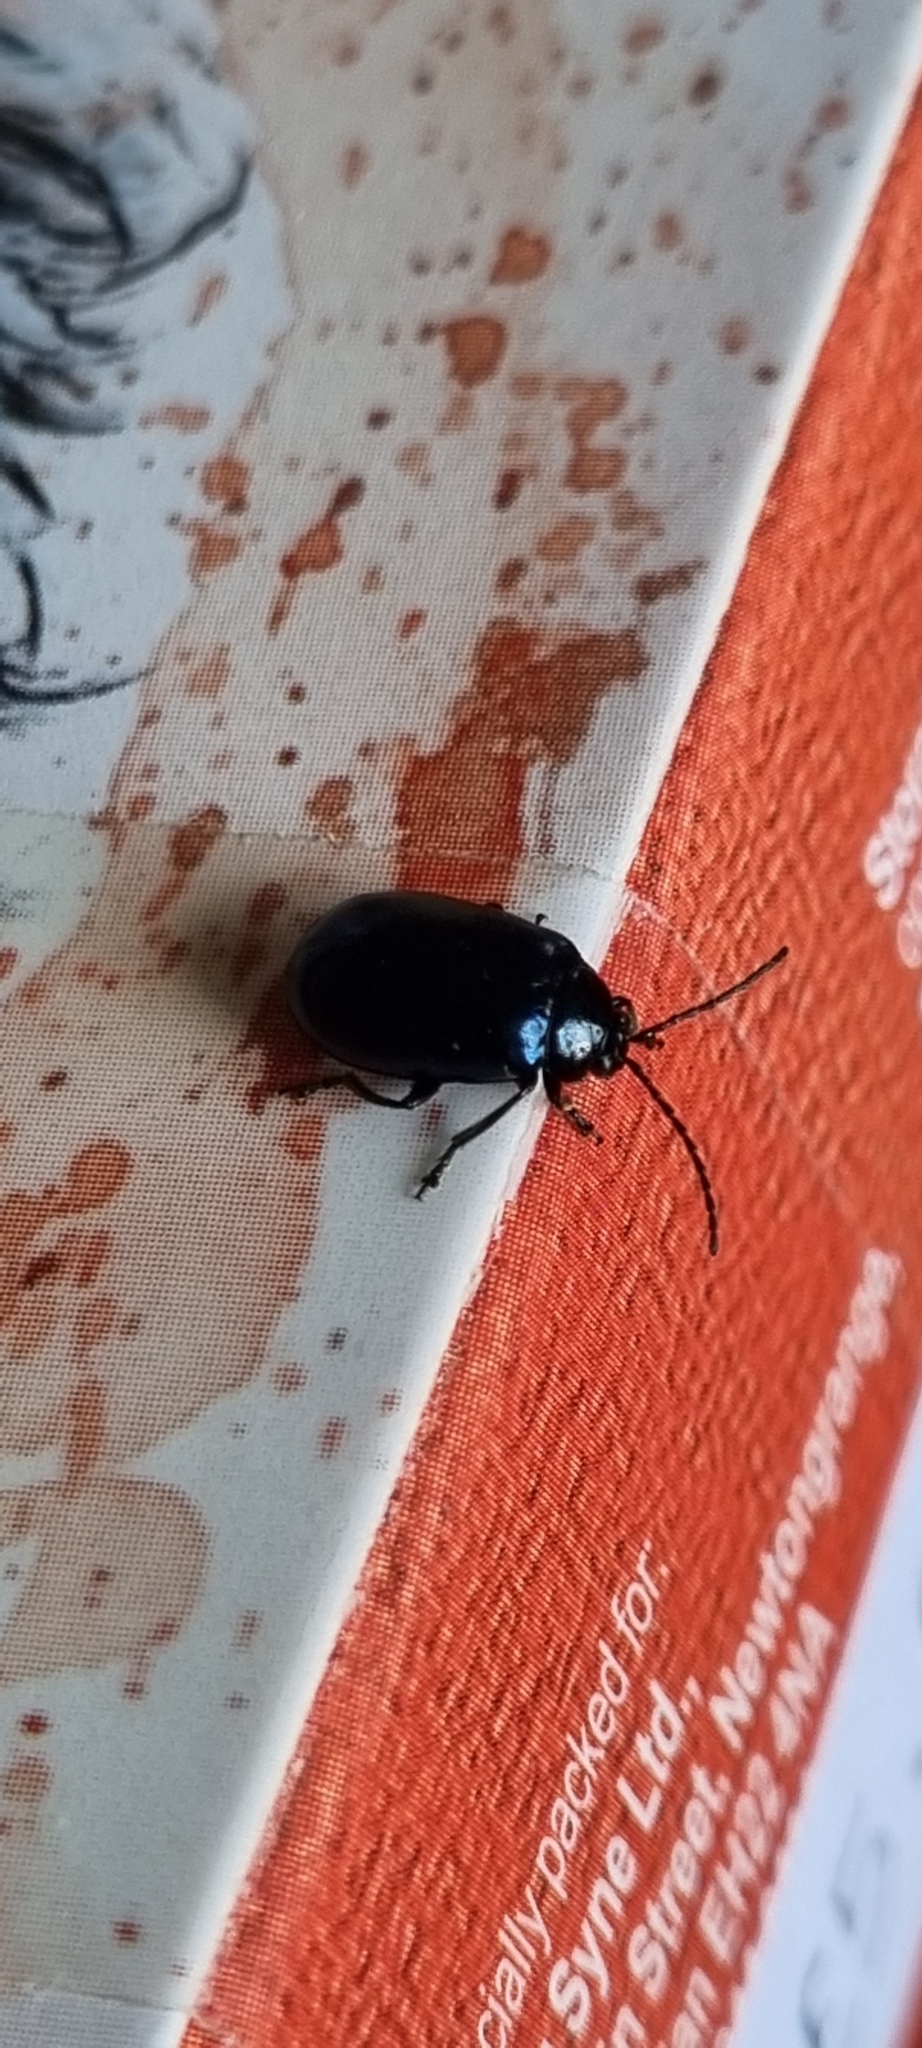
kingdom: Animalia
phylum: Arthropoda
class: Insecta
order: Coleoptera
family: Chrysomelidae
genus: Agelastica
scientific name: Agelastica alni
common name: Alder leaf beetle
